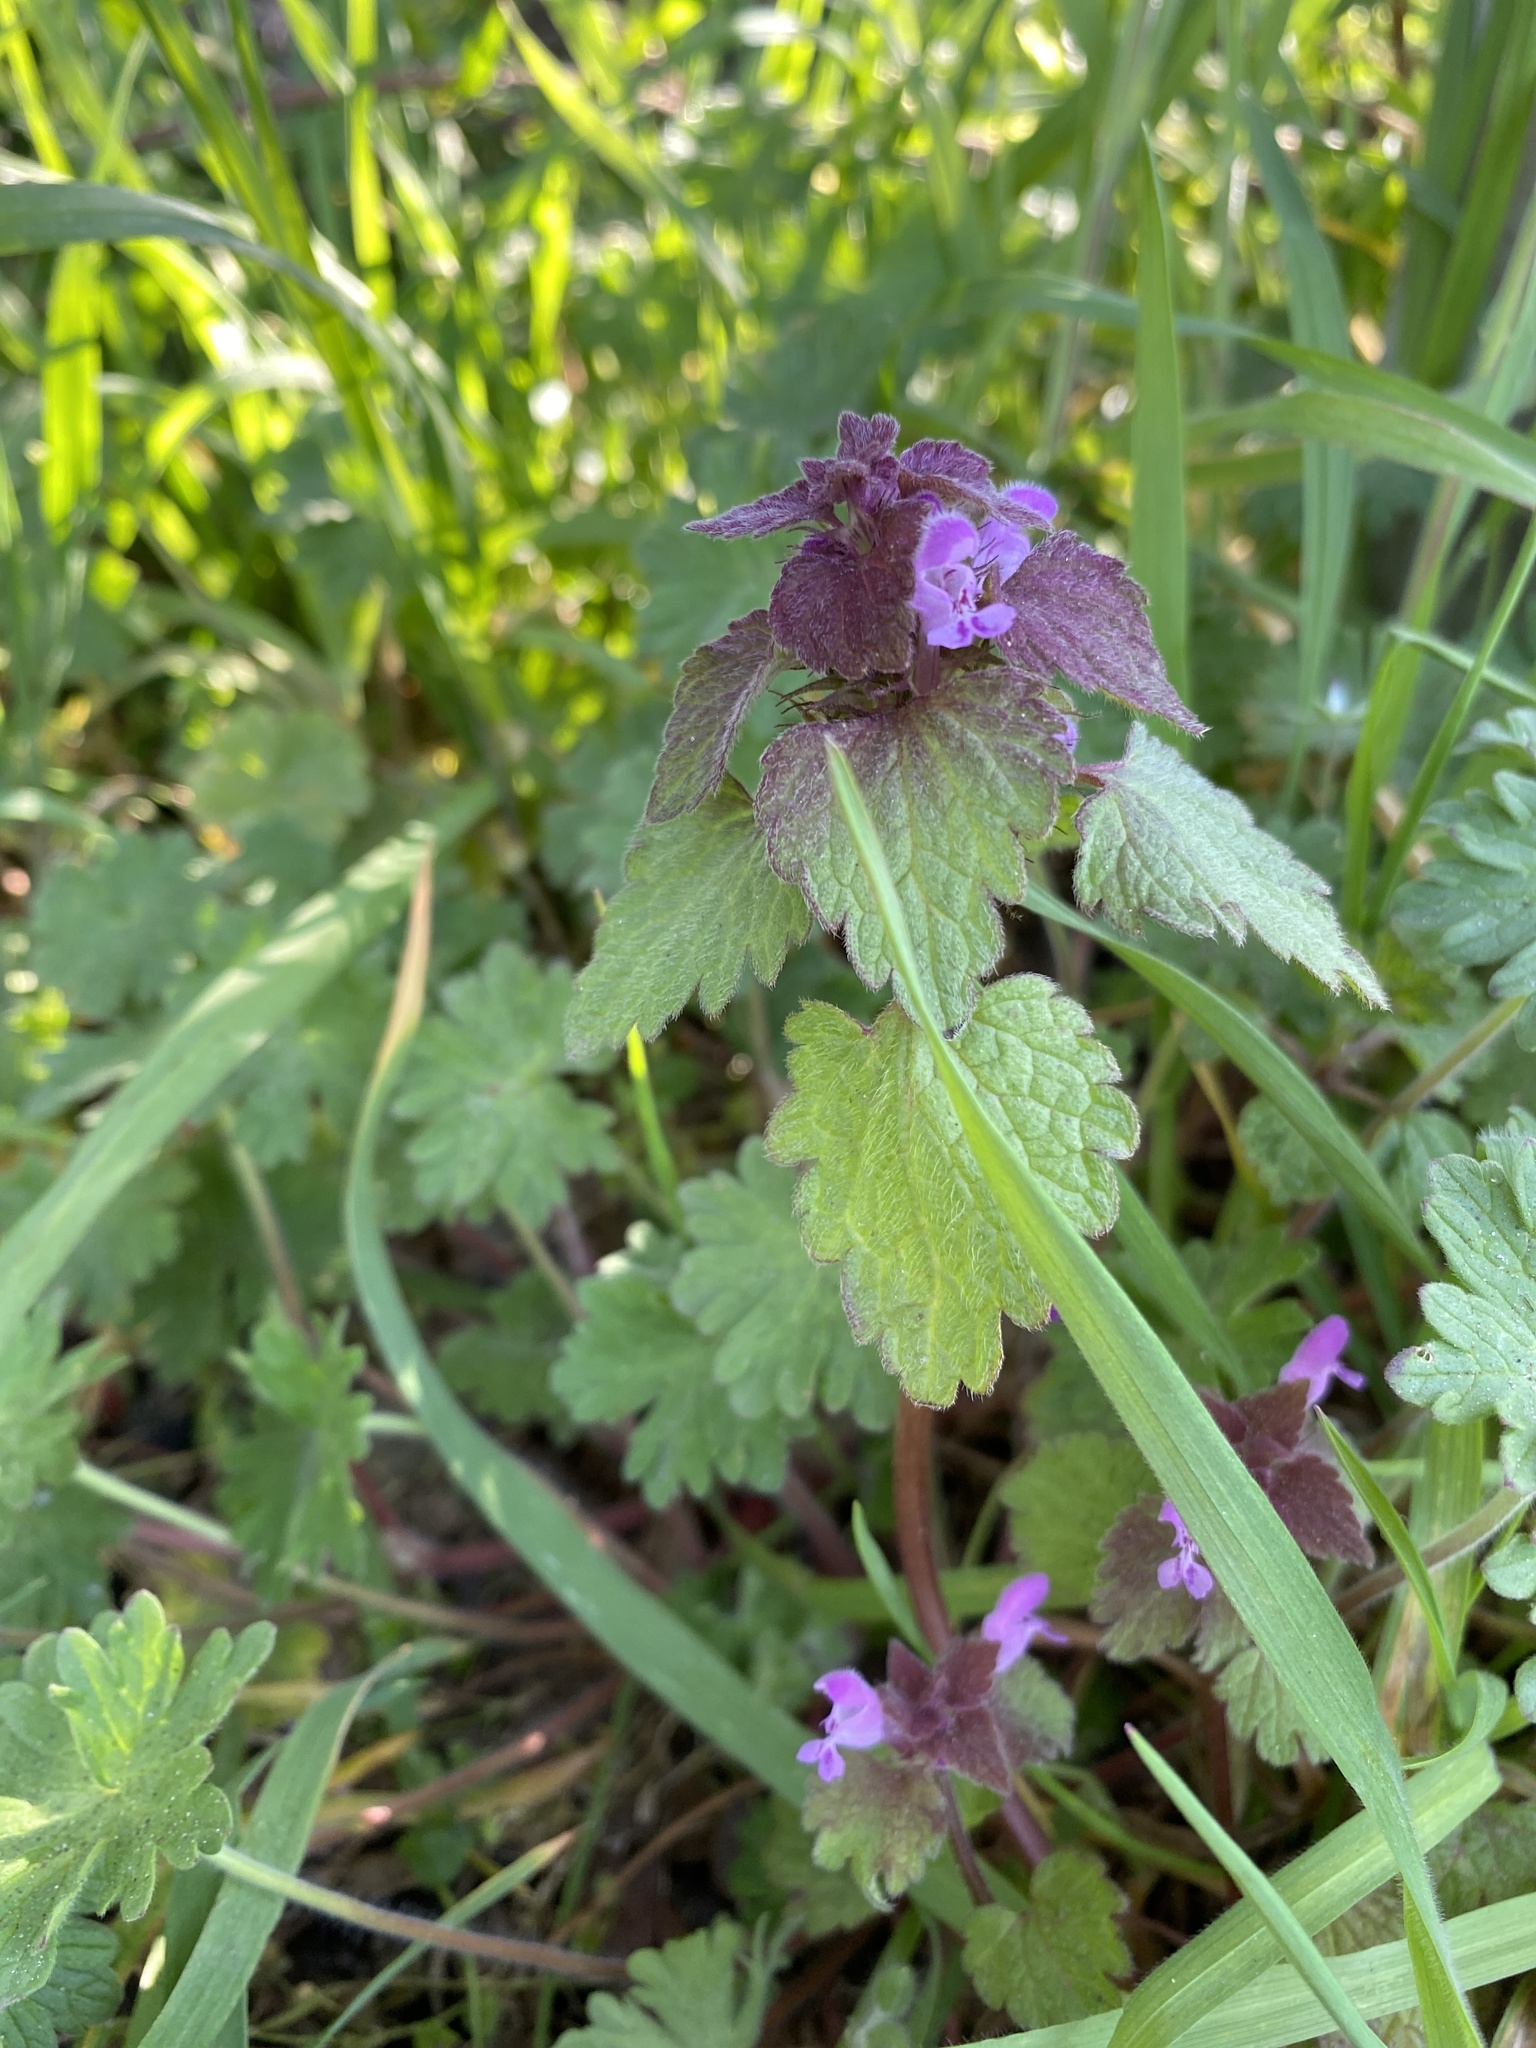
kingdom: Plantae
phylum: Tracheophyta
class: Magnoliopsida
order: Lamiales
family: Lamiaceae
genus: Lamium
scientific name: Lamium purpureum
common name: Red dead-nettle
